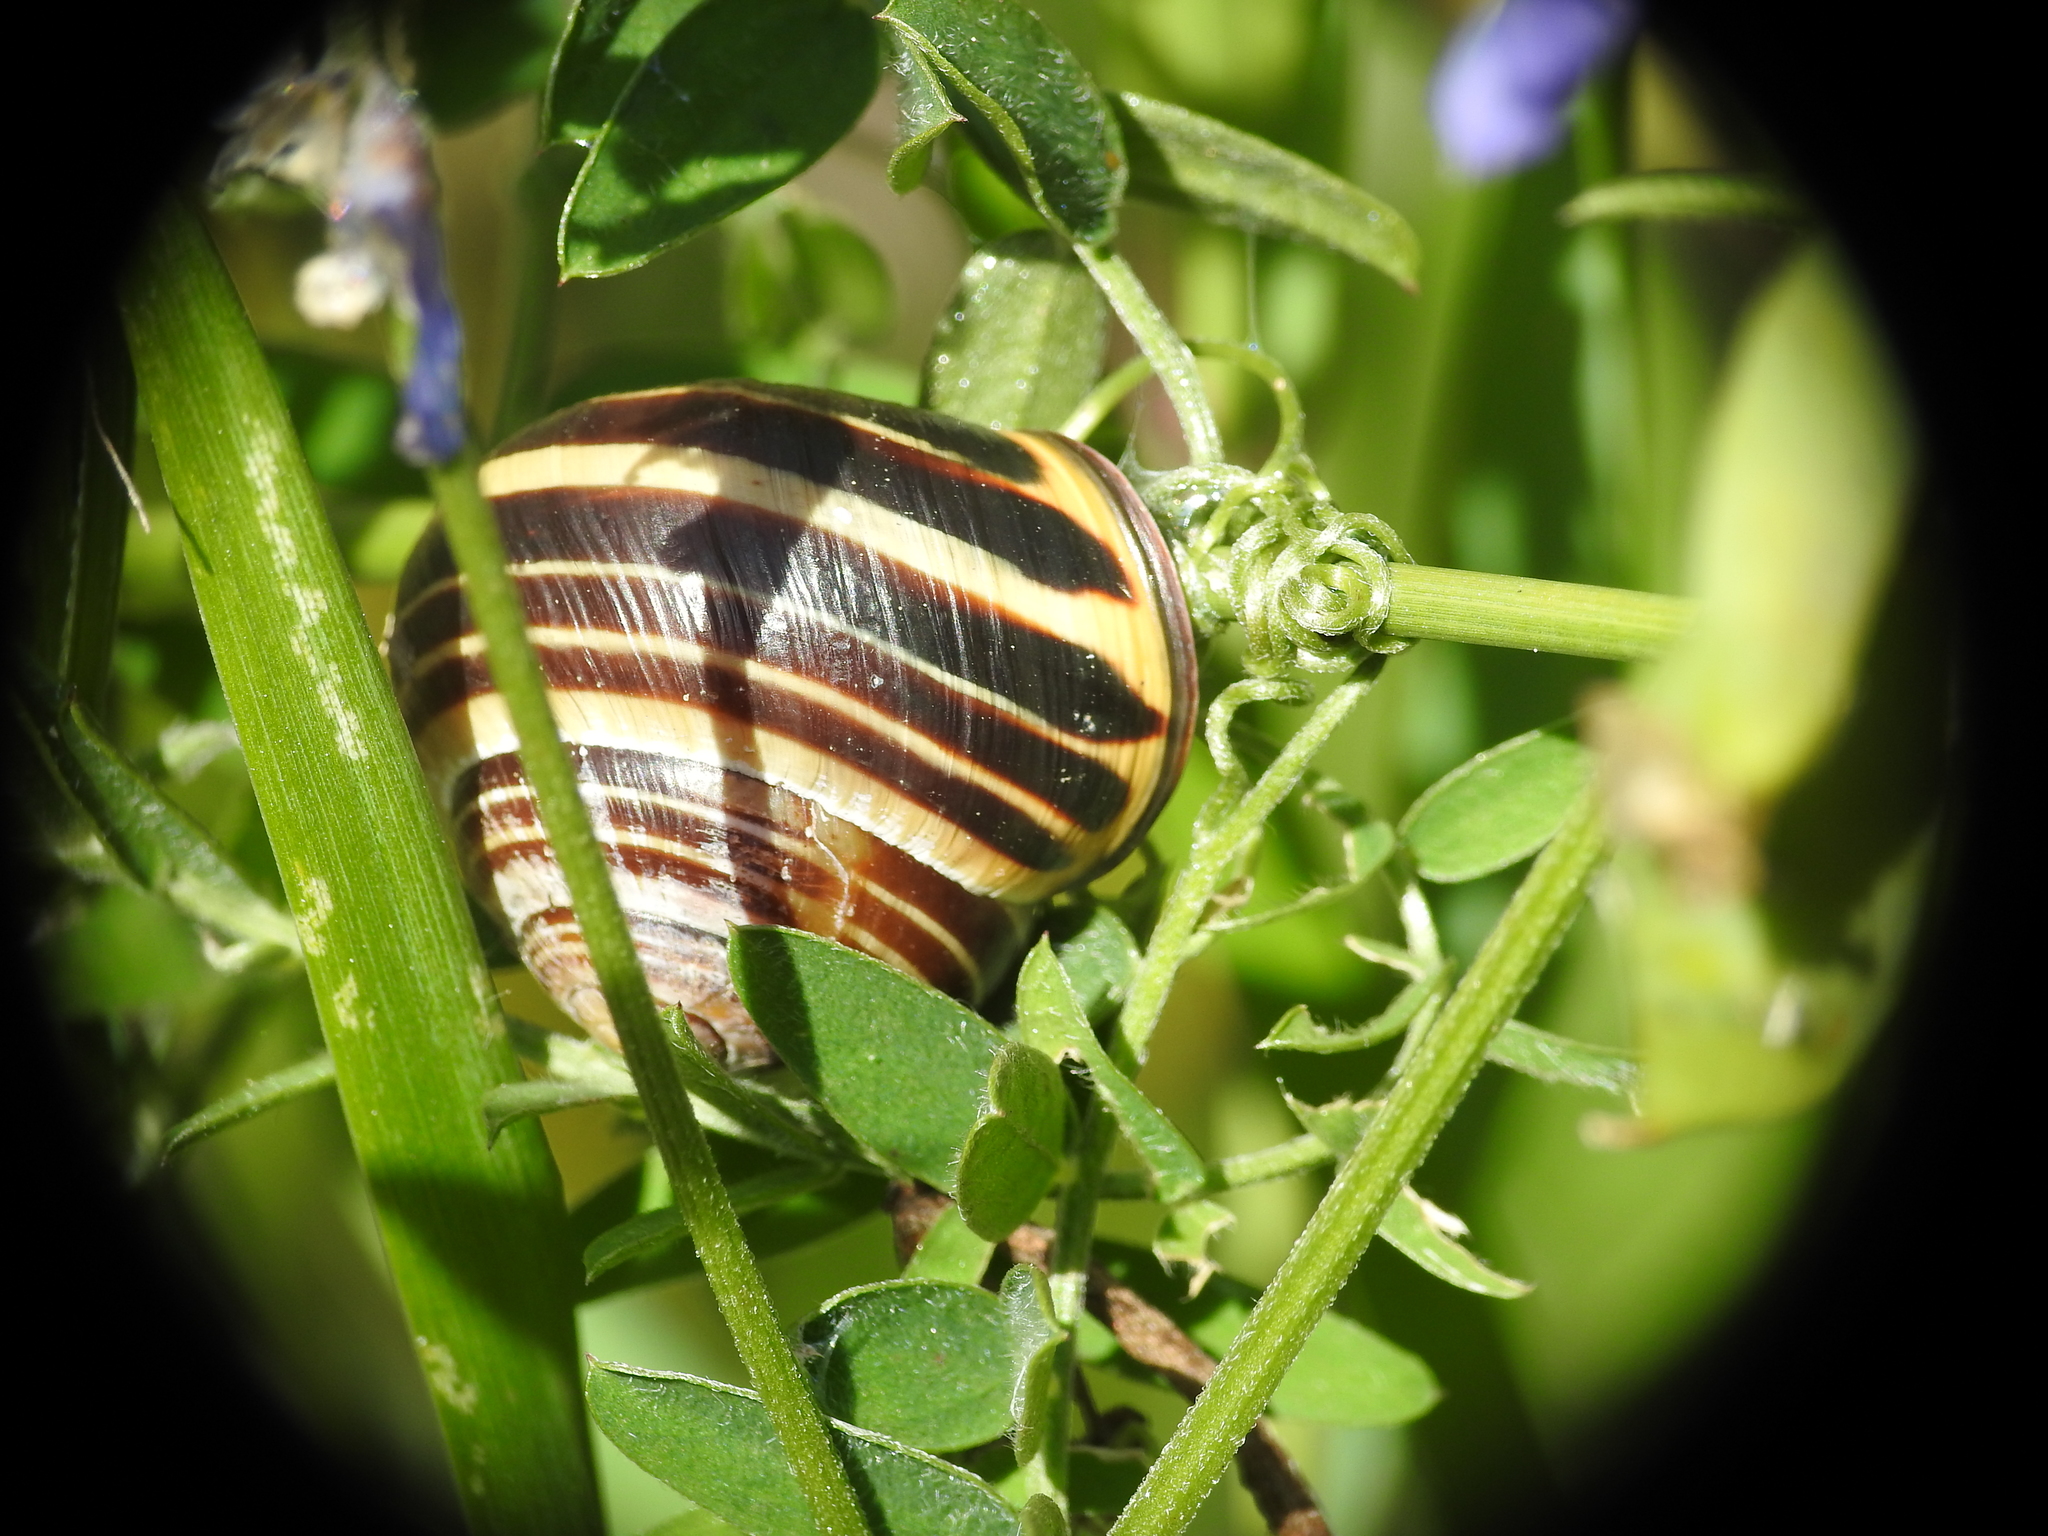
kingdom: Animalia
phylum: Mollusca
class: Gastropoda
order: Stylommatophora
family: Helicidae
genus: Cepaea
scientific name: Cepaea nemoralis
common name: Grovesnail
